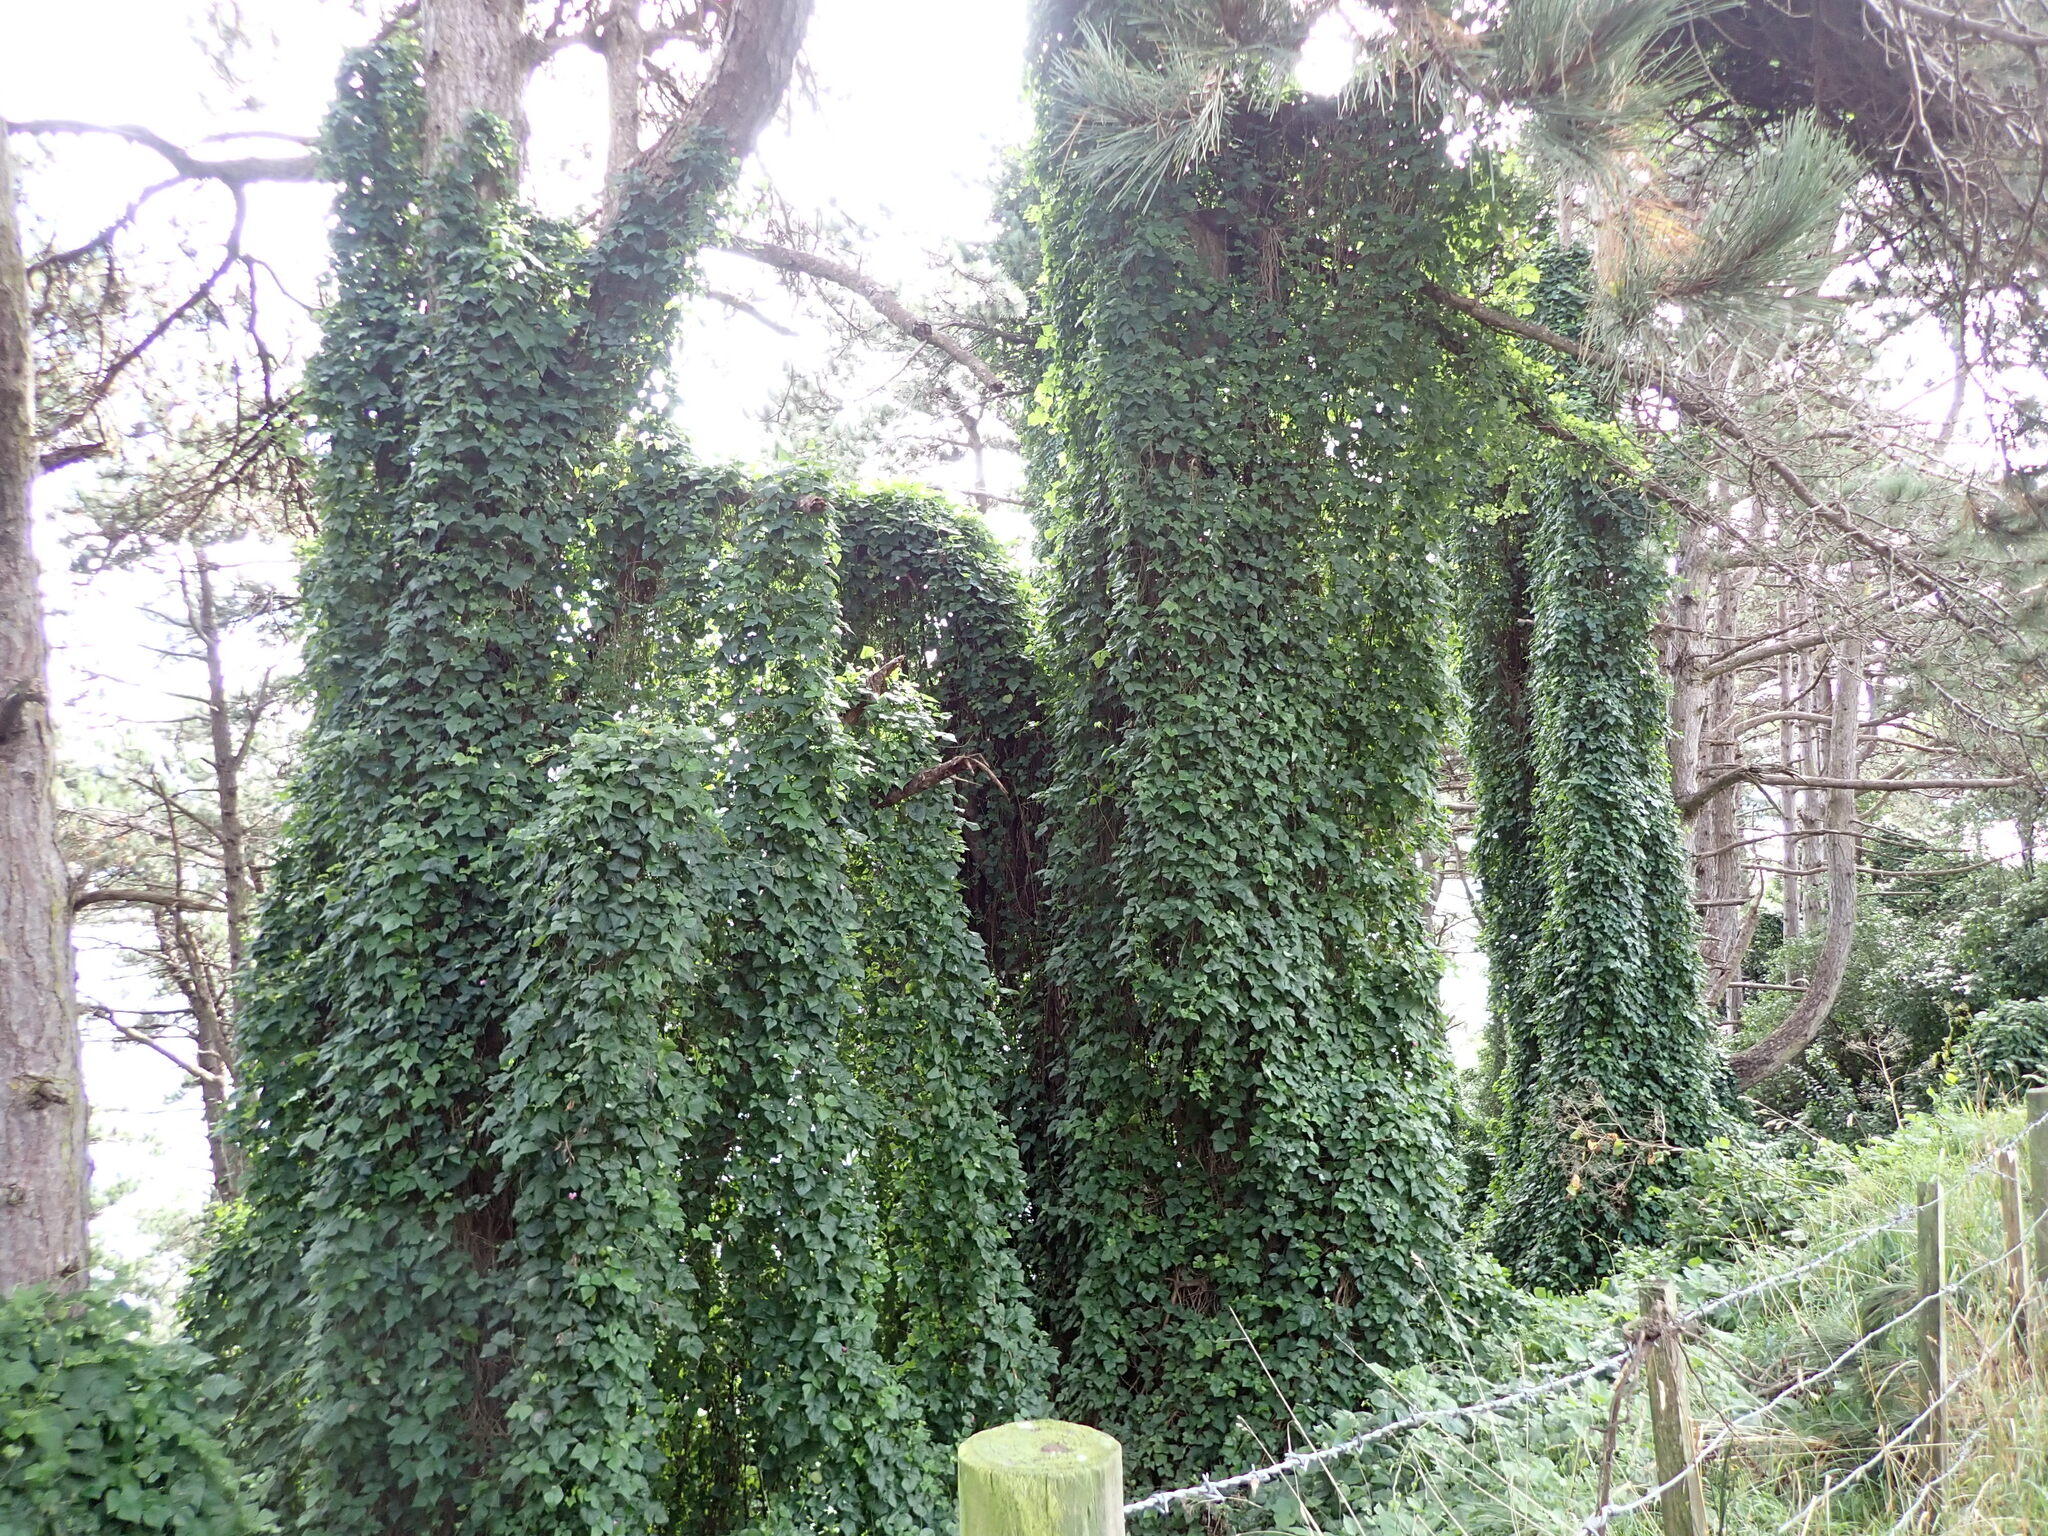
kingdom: Plantae
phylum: Tracheophyta
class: Magnoliopsida
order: Fabales
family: Fabaceae
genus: Dipogon
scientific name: Dipogon lignosus
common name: Okie bean
